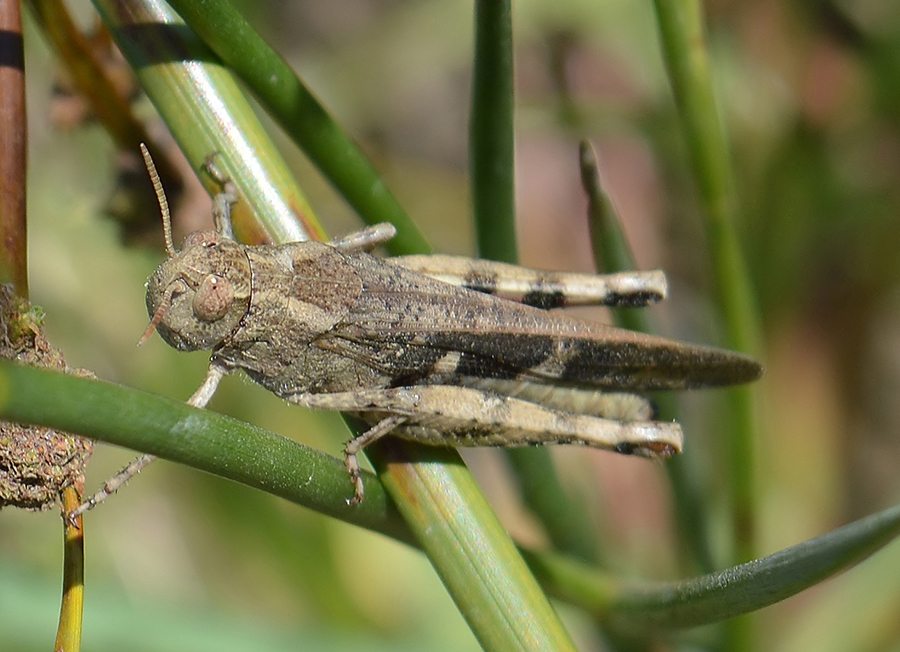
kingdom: Animalia
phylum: Arthropoda
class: Insecta
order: Orthoptera
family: Acrididae
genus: Aiolopus
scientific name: Aiolopus strepens
